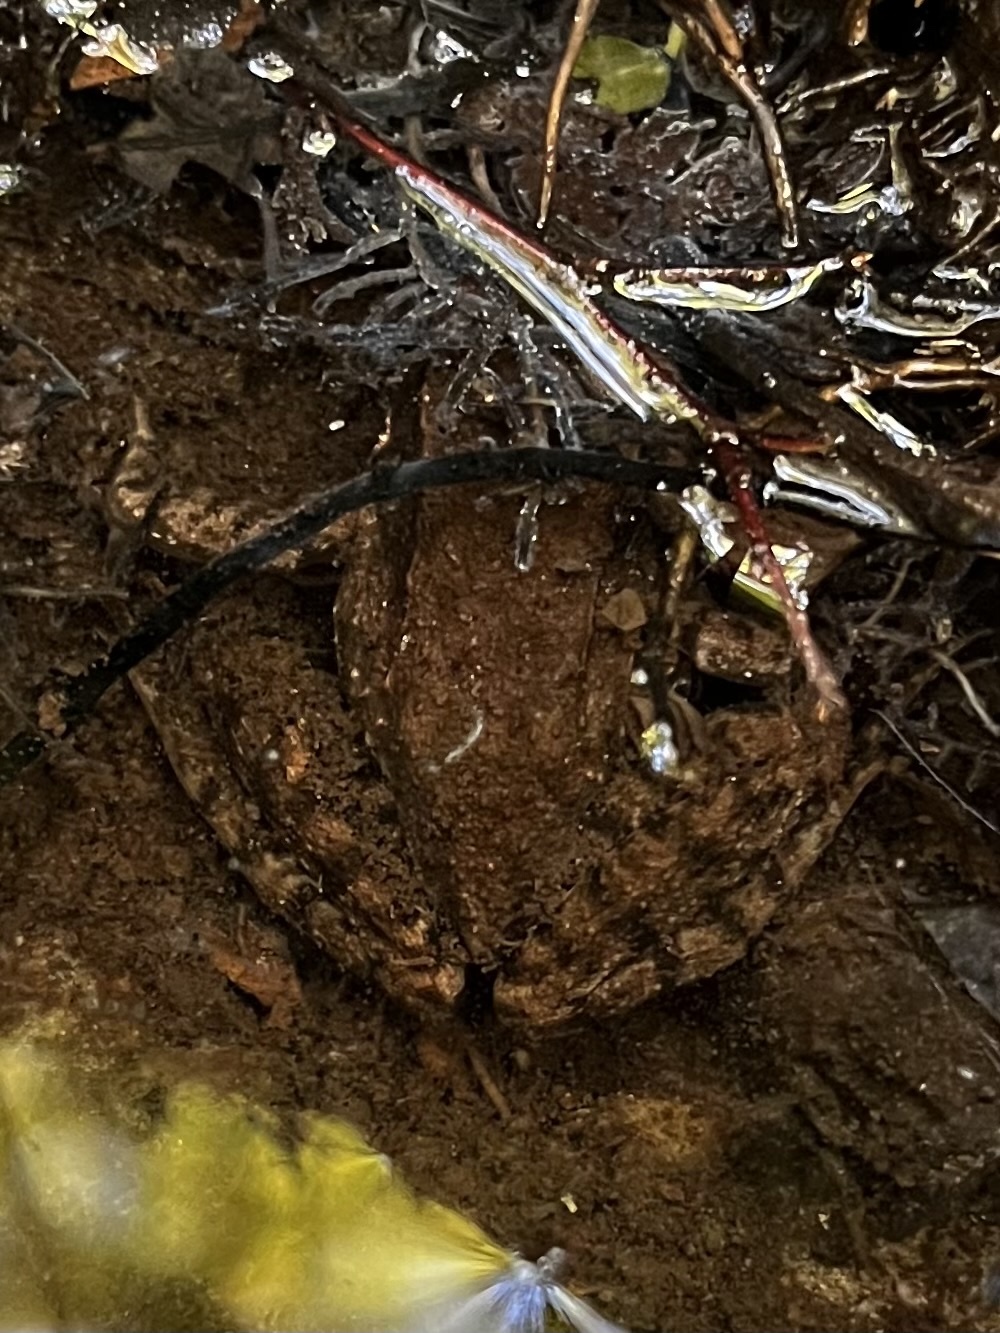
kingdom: Animalia
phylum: Chordata
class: Amphibia
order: Anura
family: Ranidae
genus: Lithobates
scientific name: Lithobates clamitans
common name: Green frog
